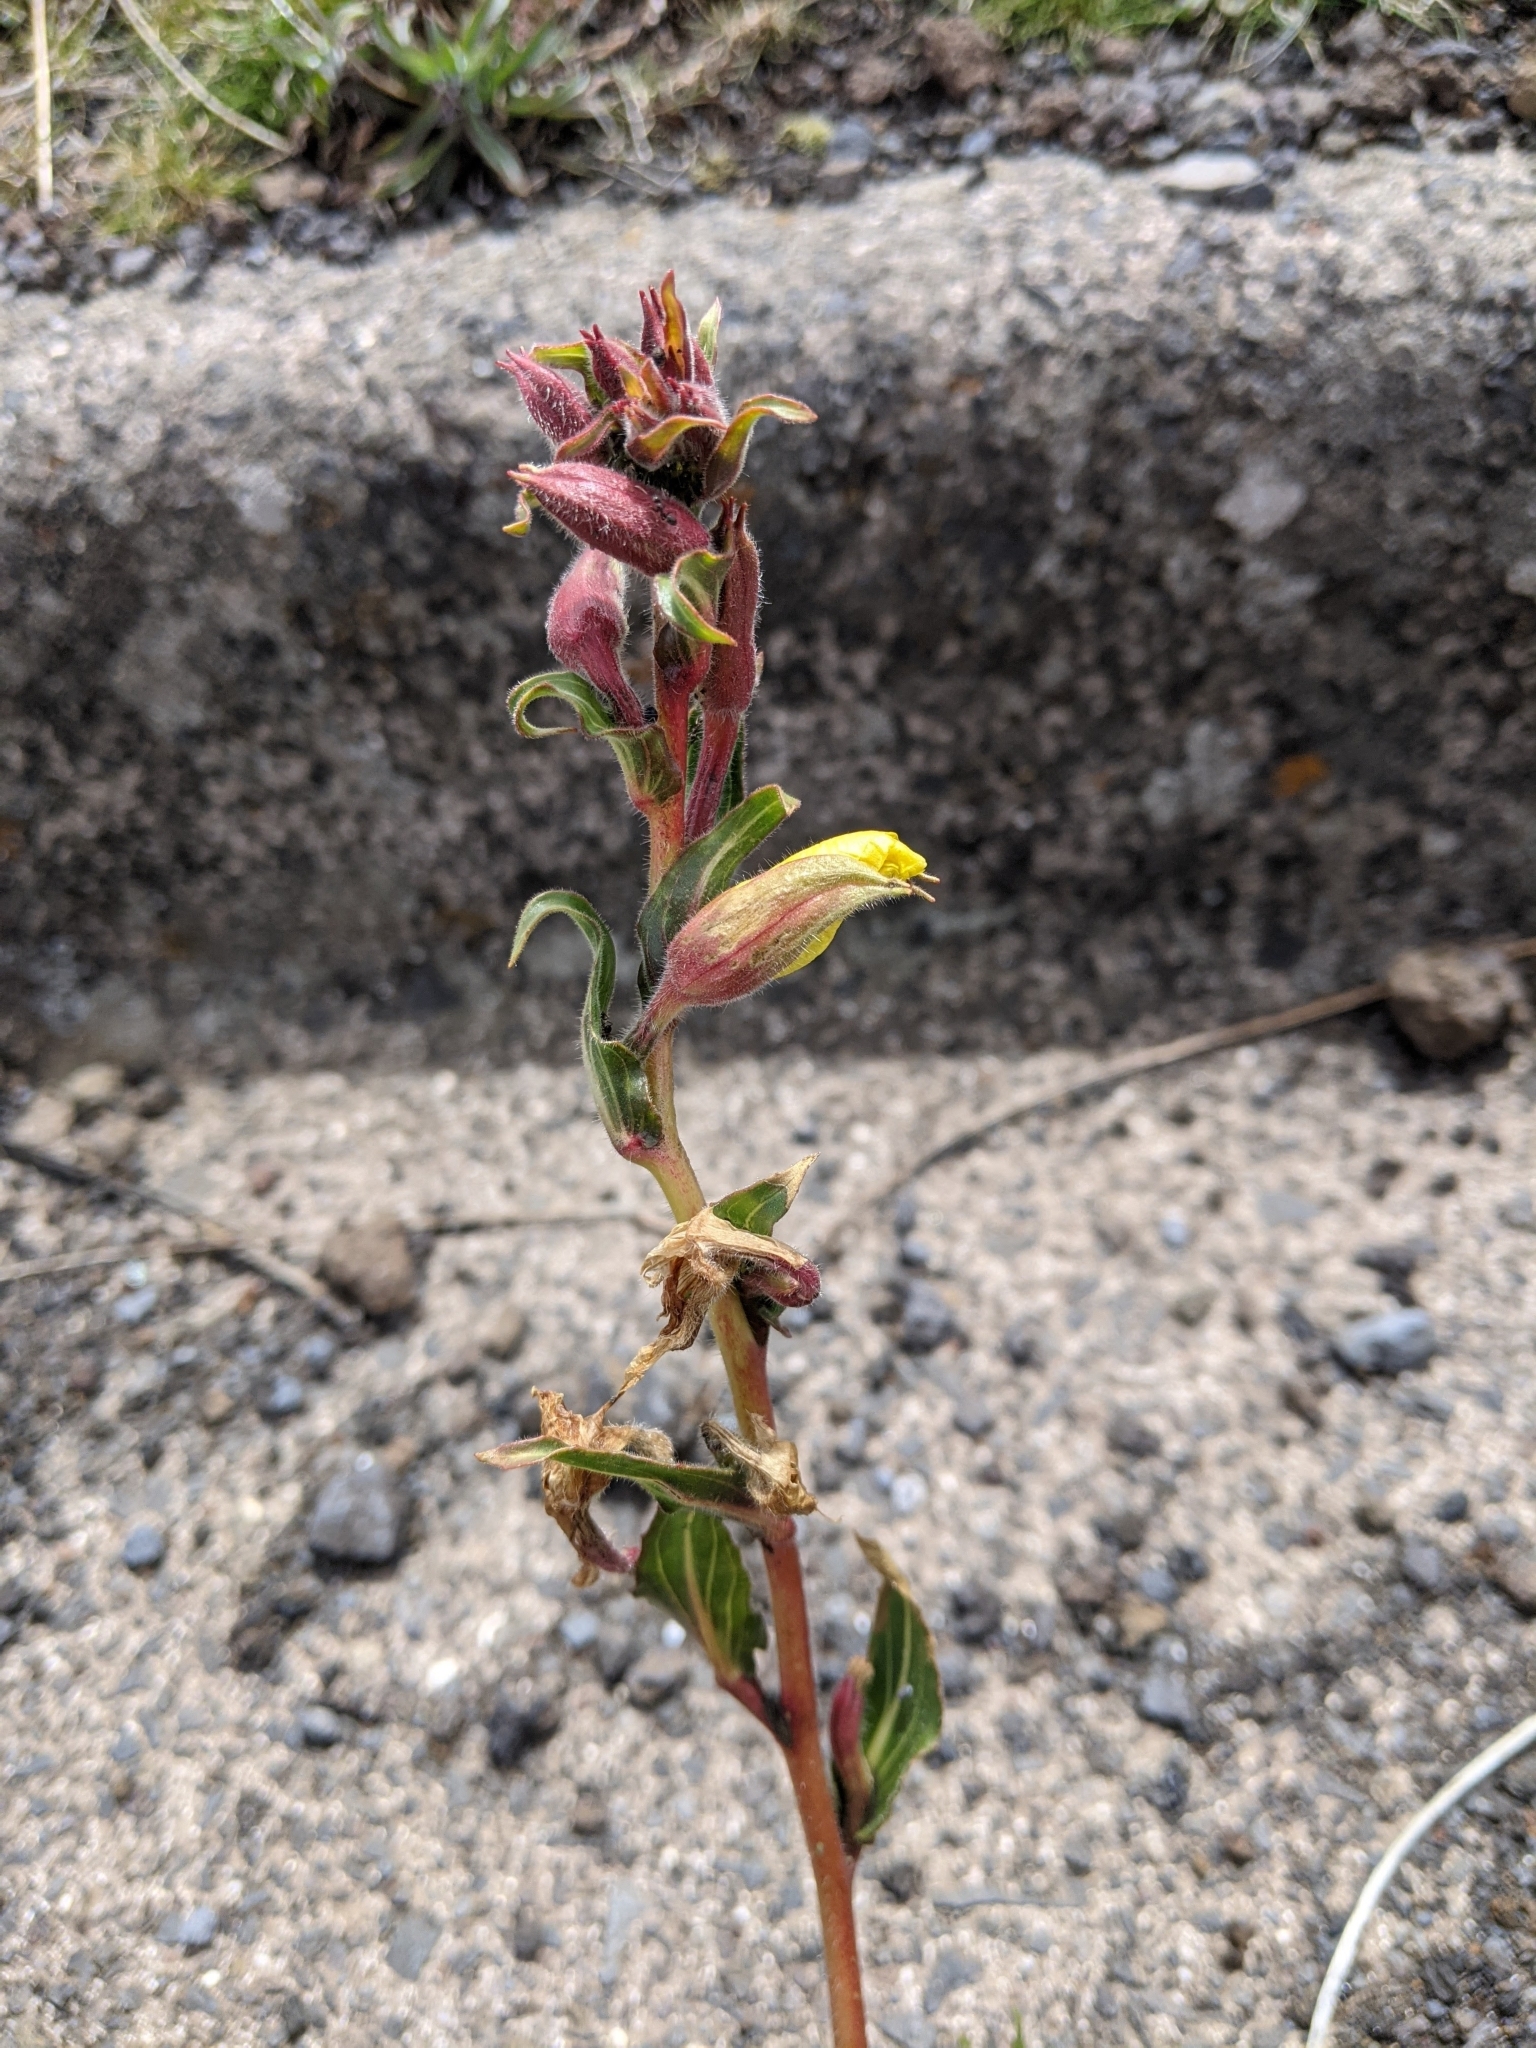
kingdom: Plantae
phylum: Tracheophyta
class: Magnoliopsida
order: Myrtales
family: Onagraceae
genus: Oenothera
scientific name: Oenothera stricta
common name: Fragrant evening-primrose
